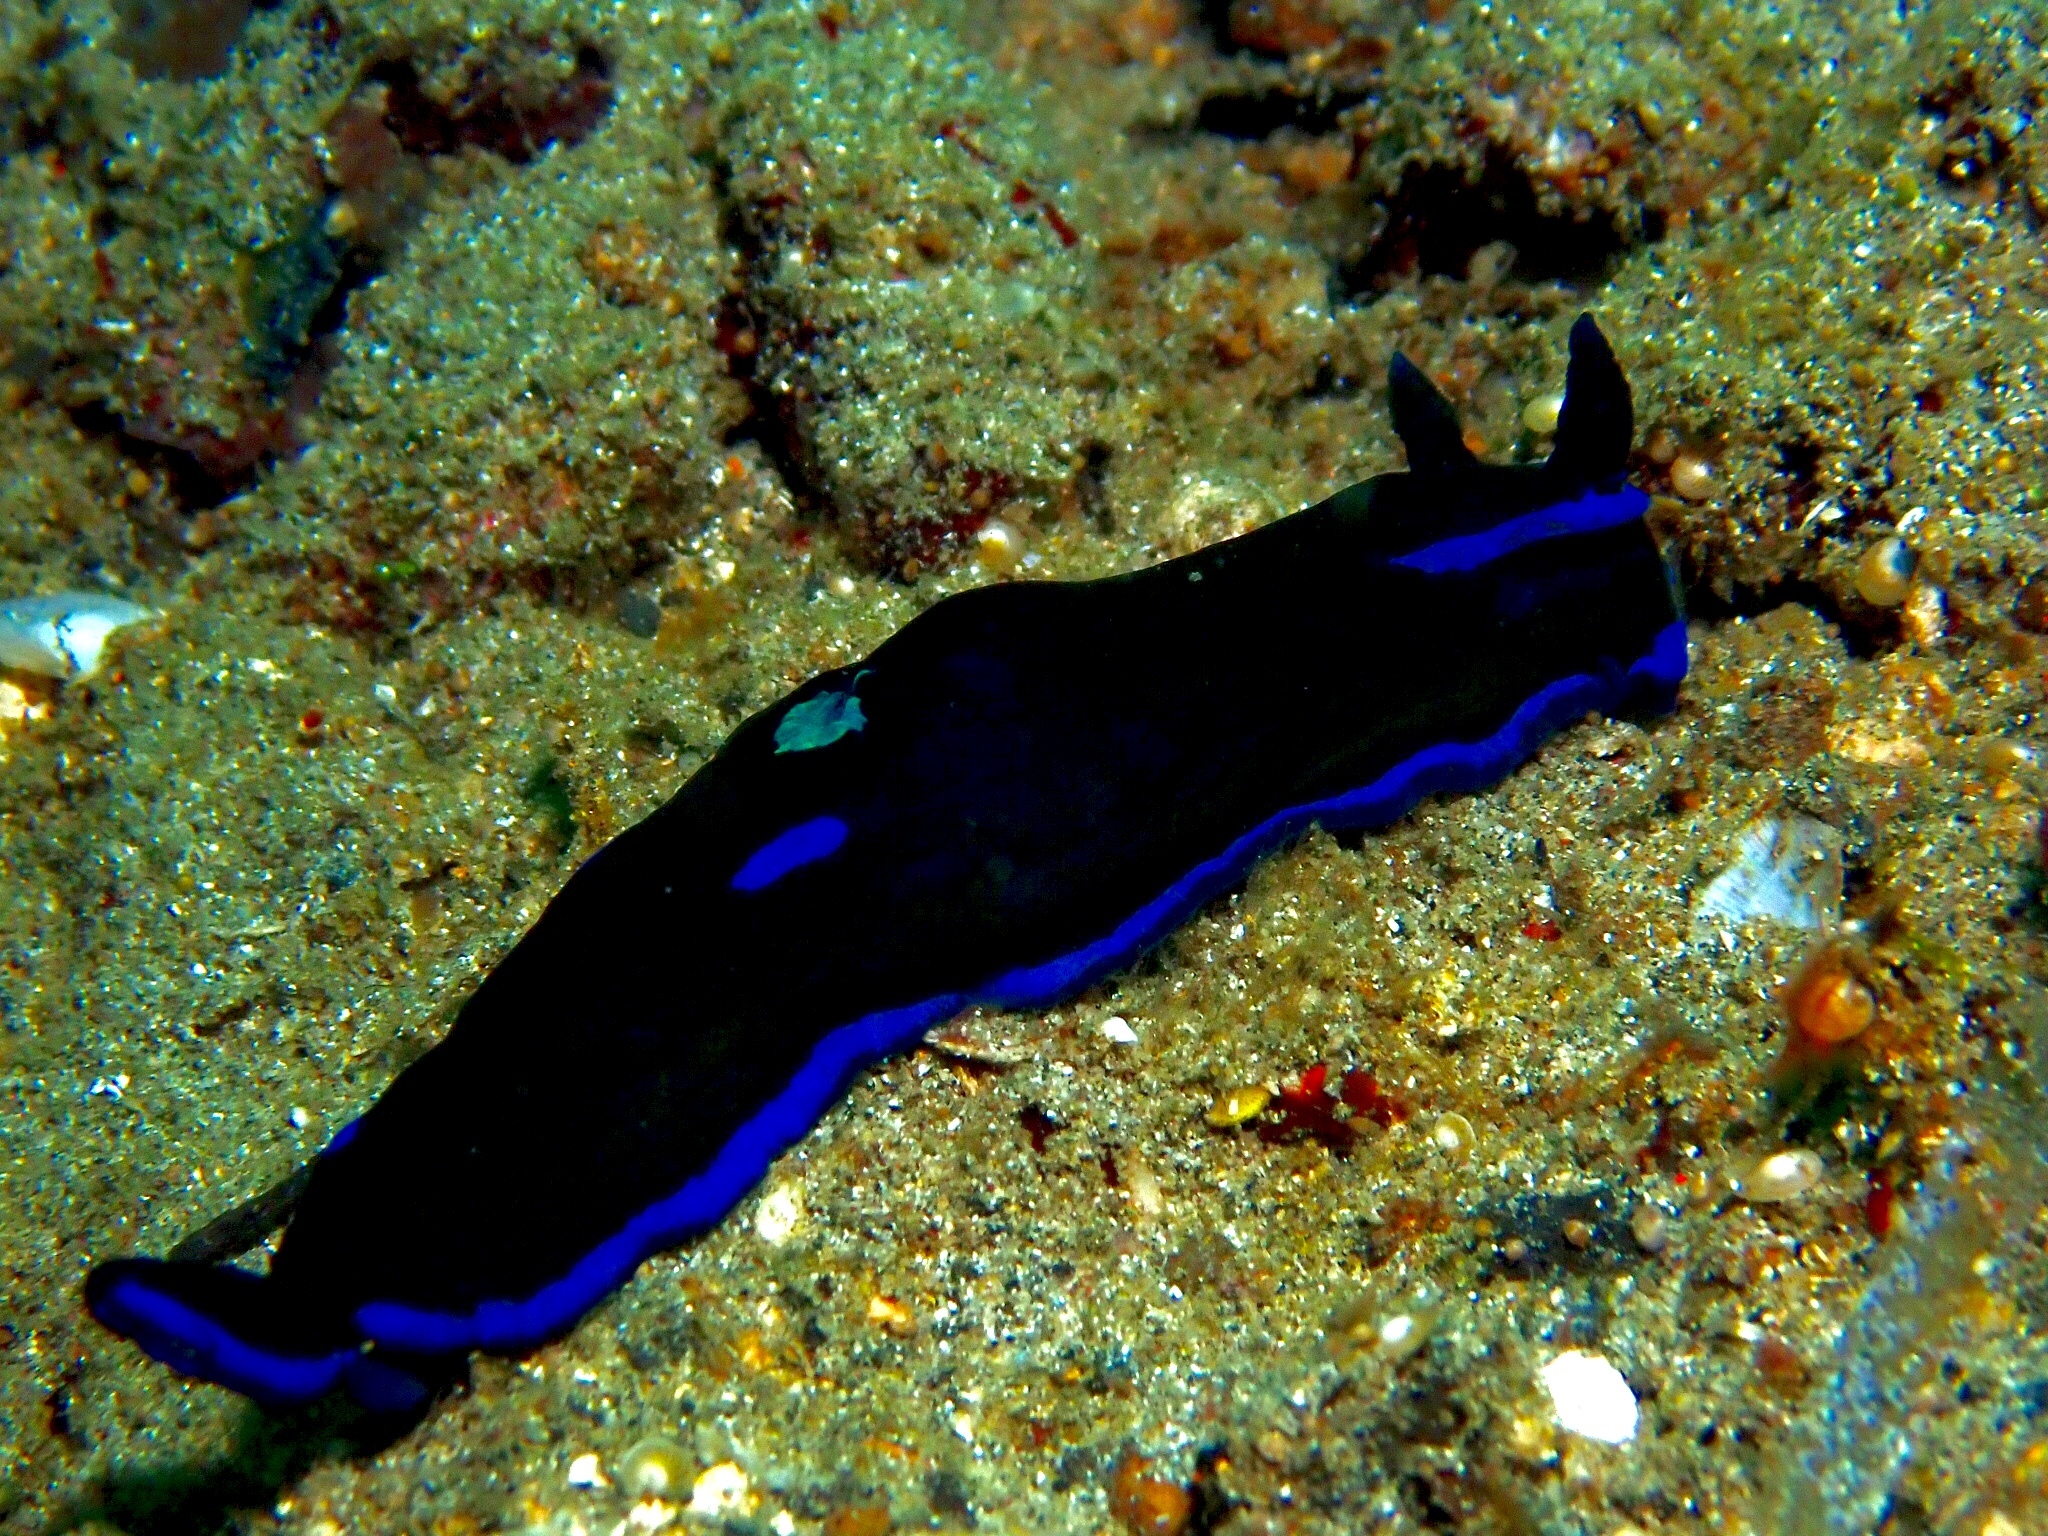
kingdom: Animalia
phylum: Mollusca
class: Gastropoda
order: Nudibranchia
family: Polyceridae
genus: Tambja
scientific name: Tambja morosa
